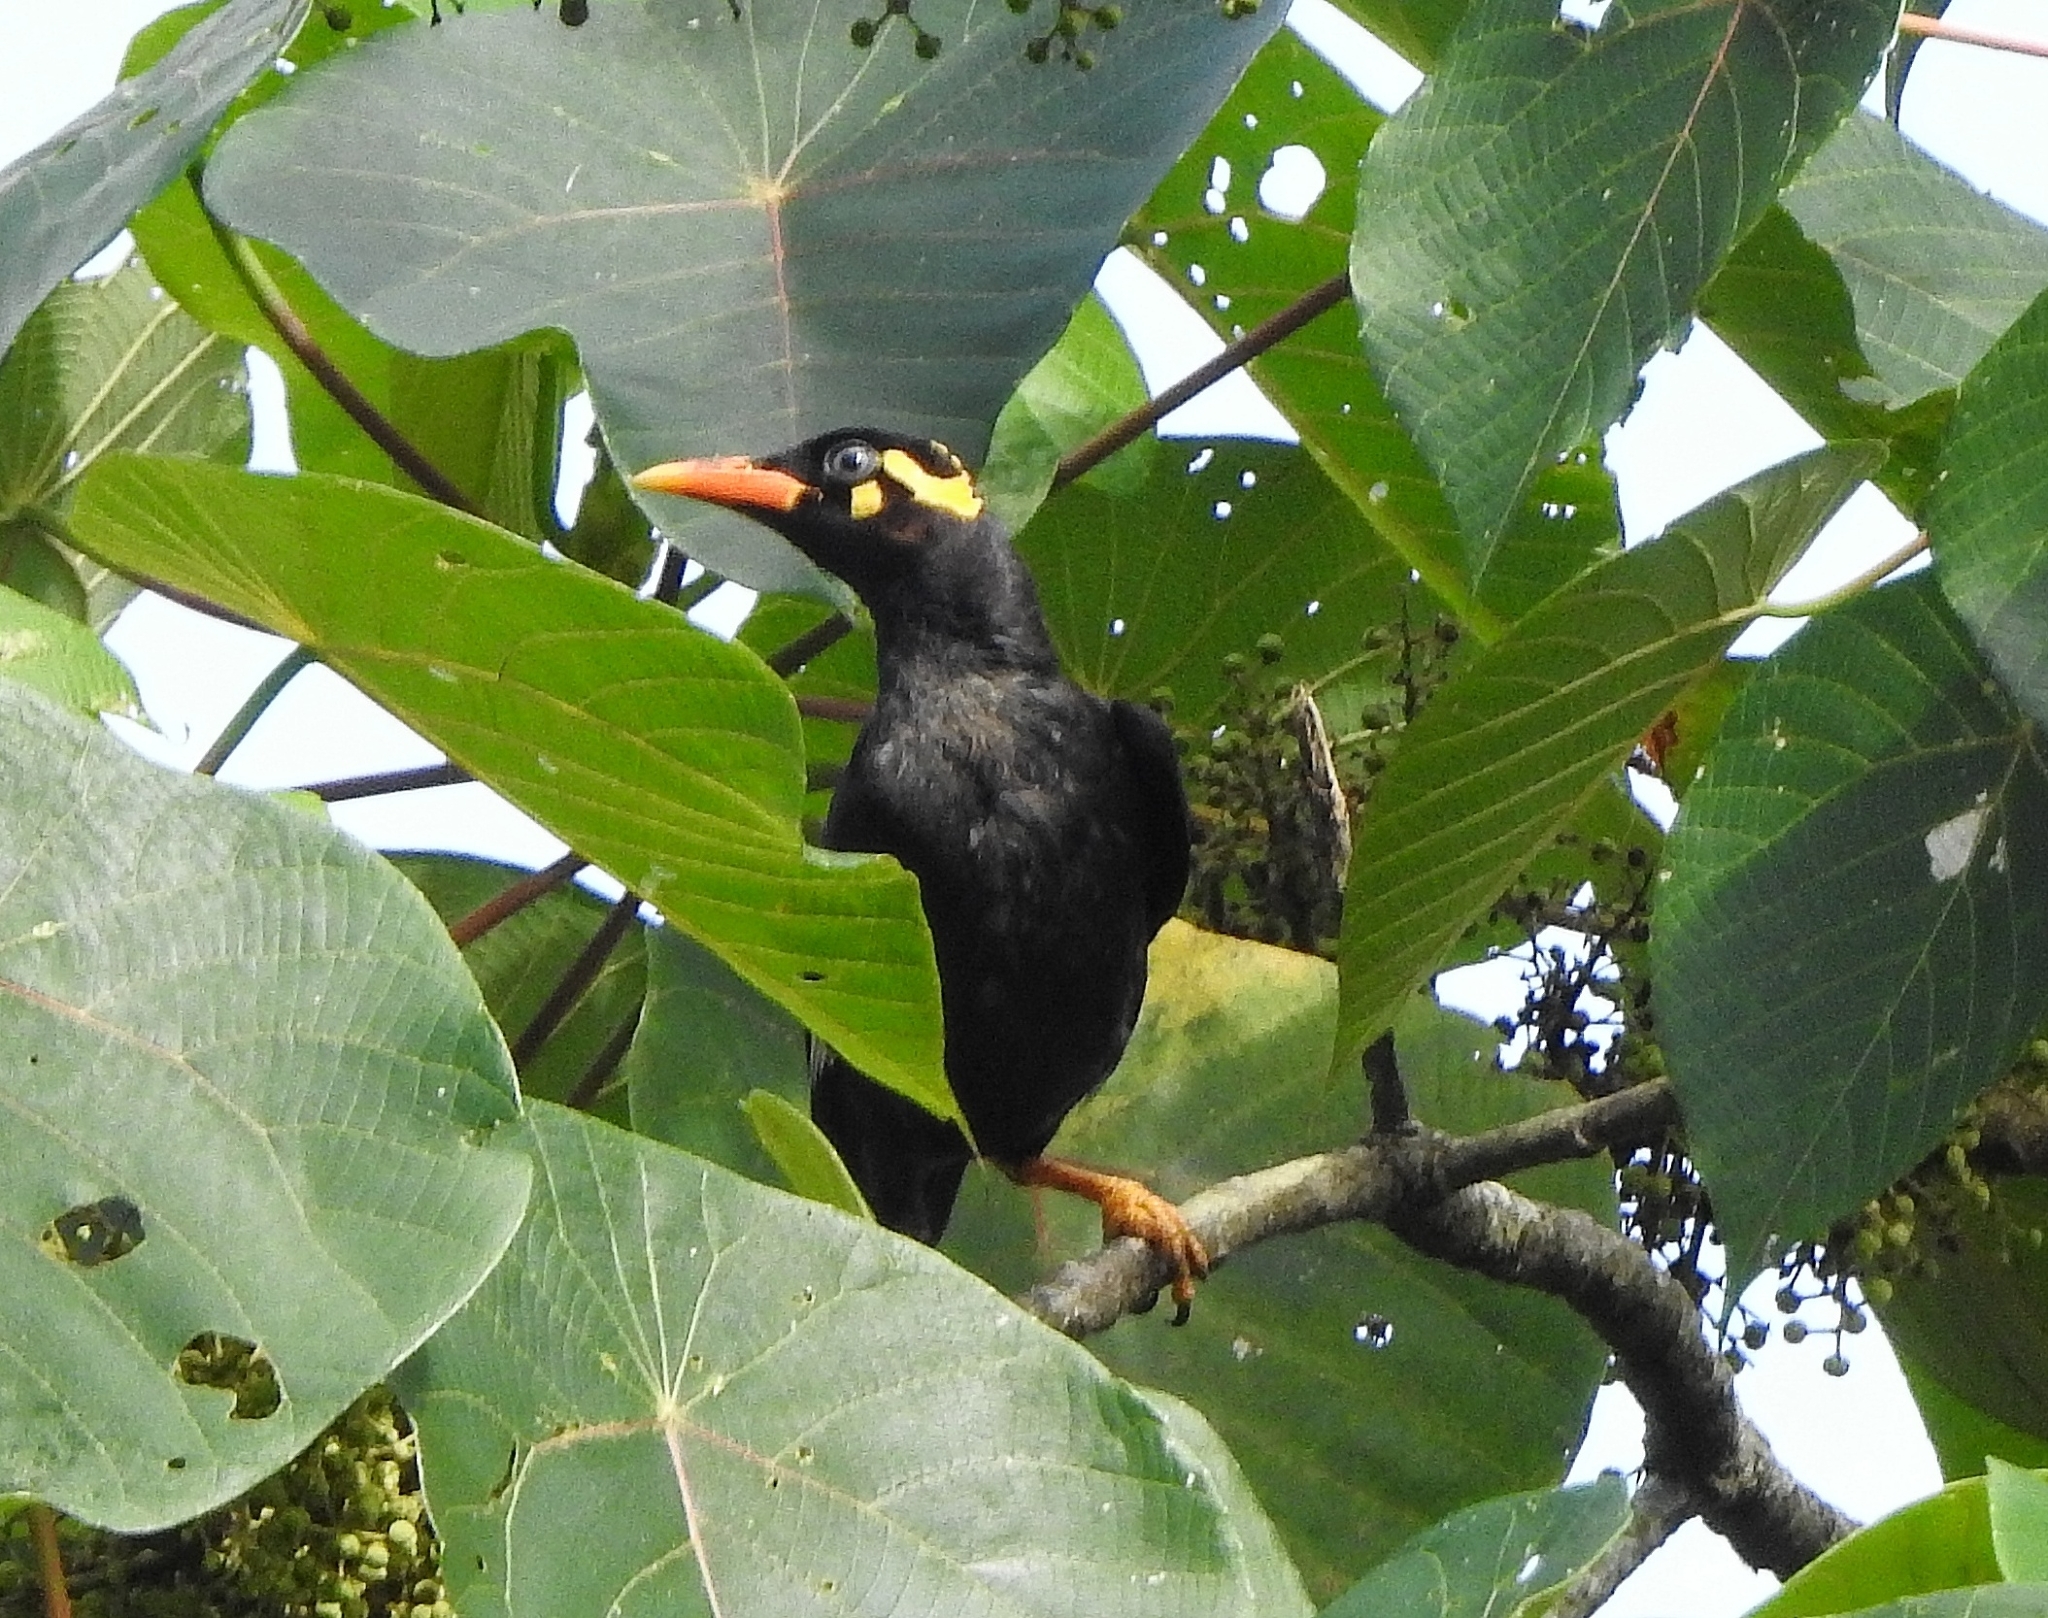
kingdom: Animalia
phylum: Chordata
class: Aves
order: Passeriformes
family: Sturnidae
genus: Gracula
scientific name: Gracula indica
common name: Southern hill myna
